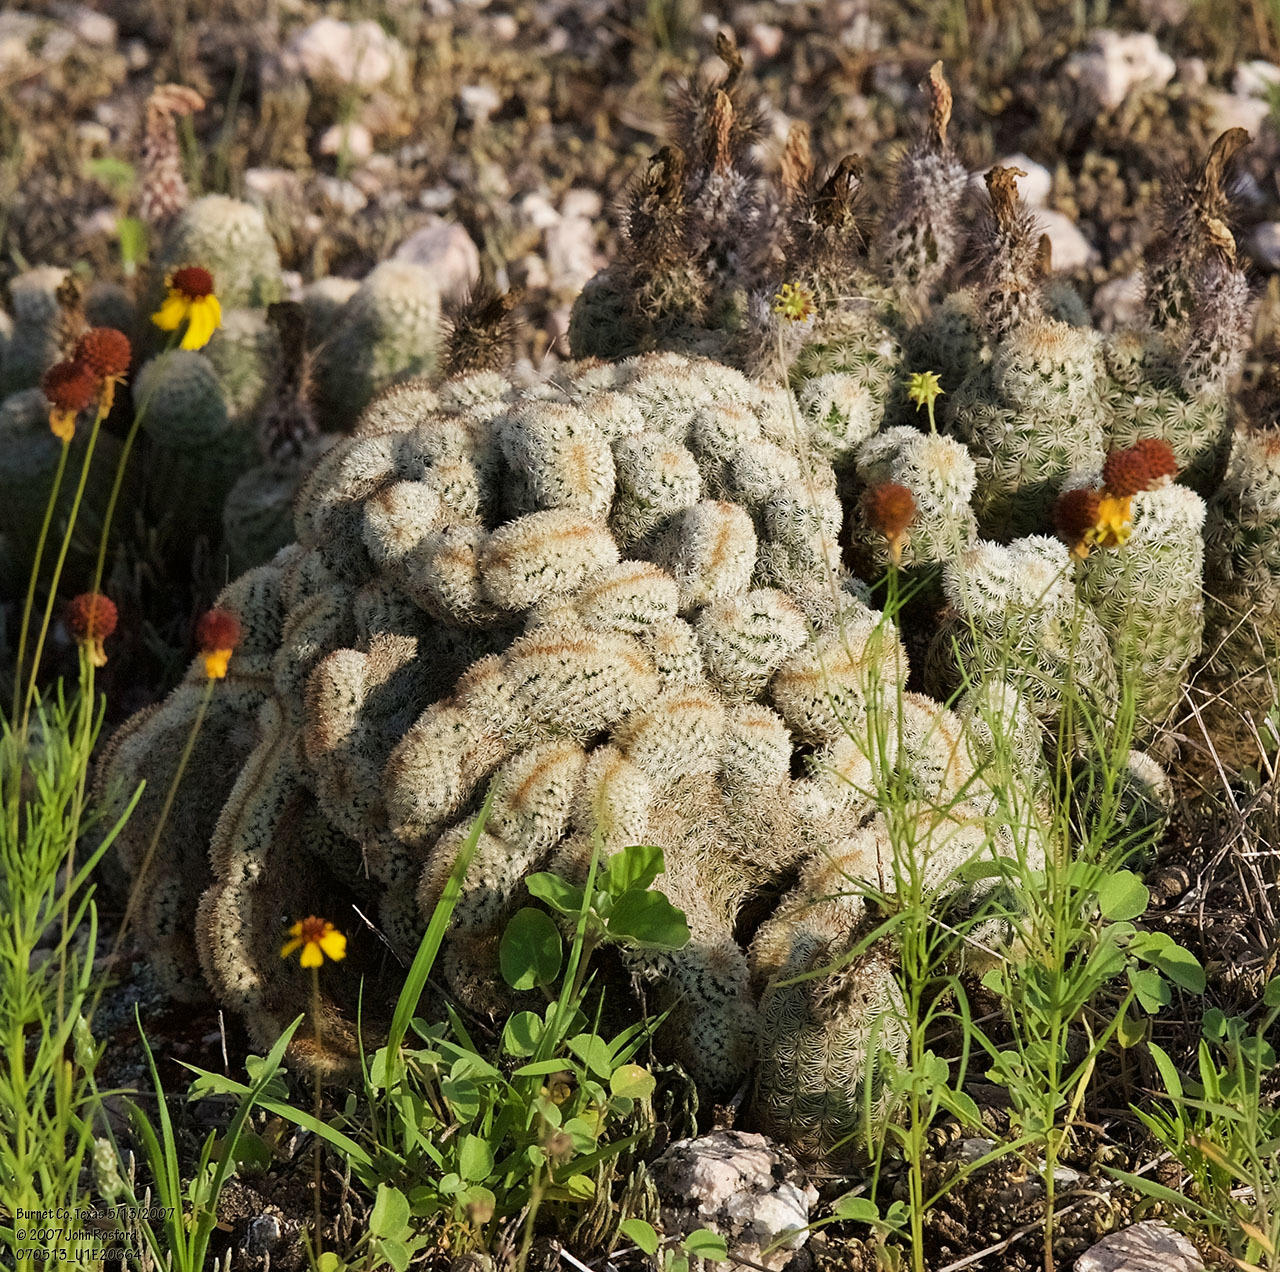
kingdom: Plantae
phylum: Tracheophyta
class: Magnoliopsida
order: Caryophyllales
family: Cactaceae
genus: Echinocereus
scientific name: Echinocereus reichenbachii
